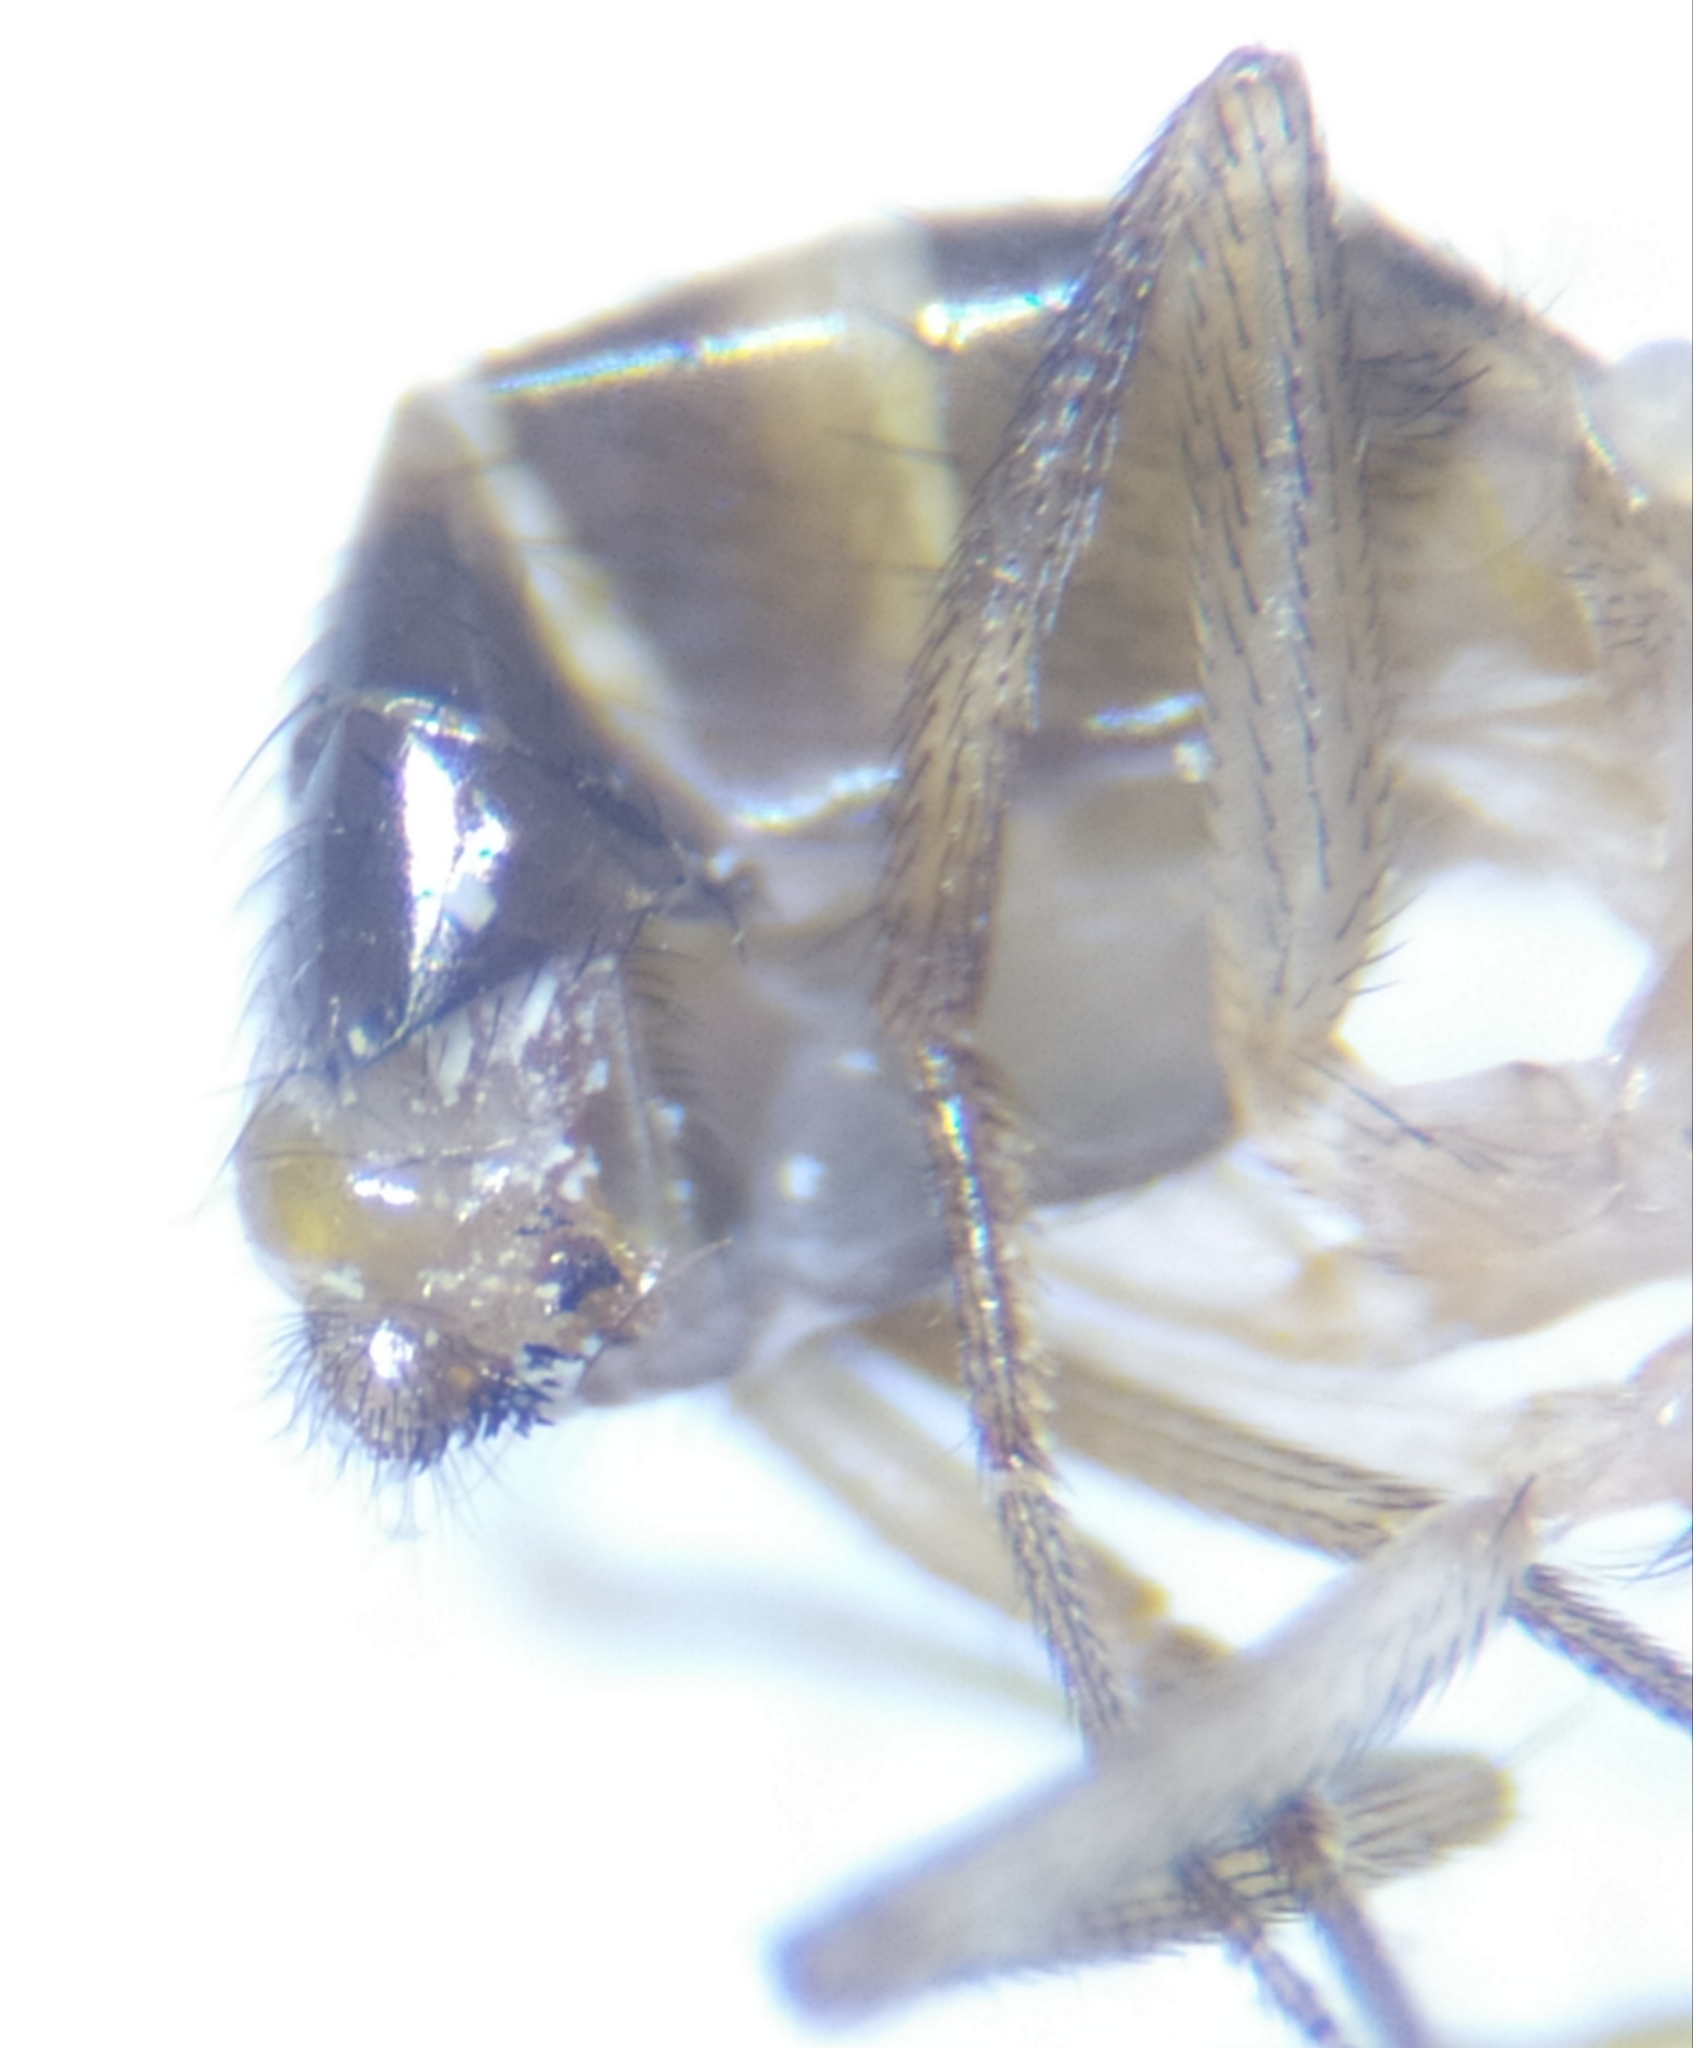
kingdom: Animalia
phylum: Arthropoda
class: Insecta
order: Diptera
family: Drosophilidae
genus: Drosophila
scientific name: Drosophila funebris
